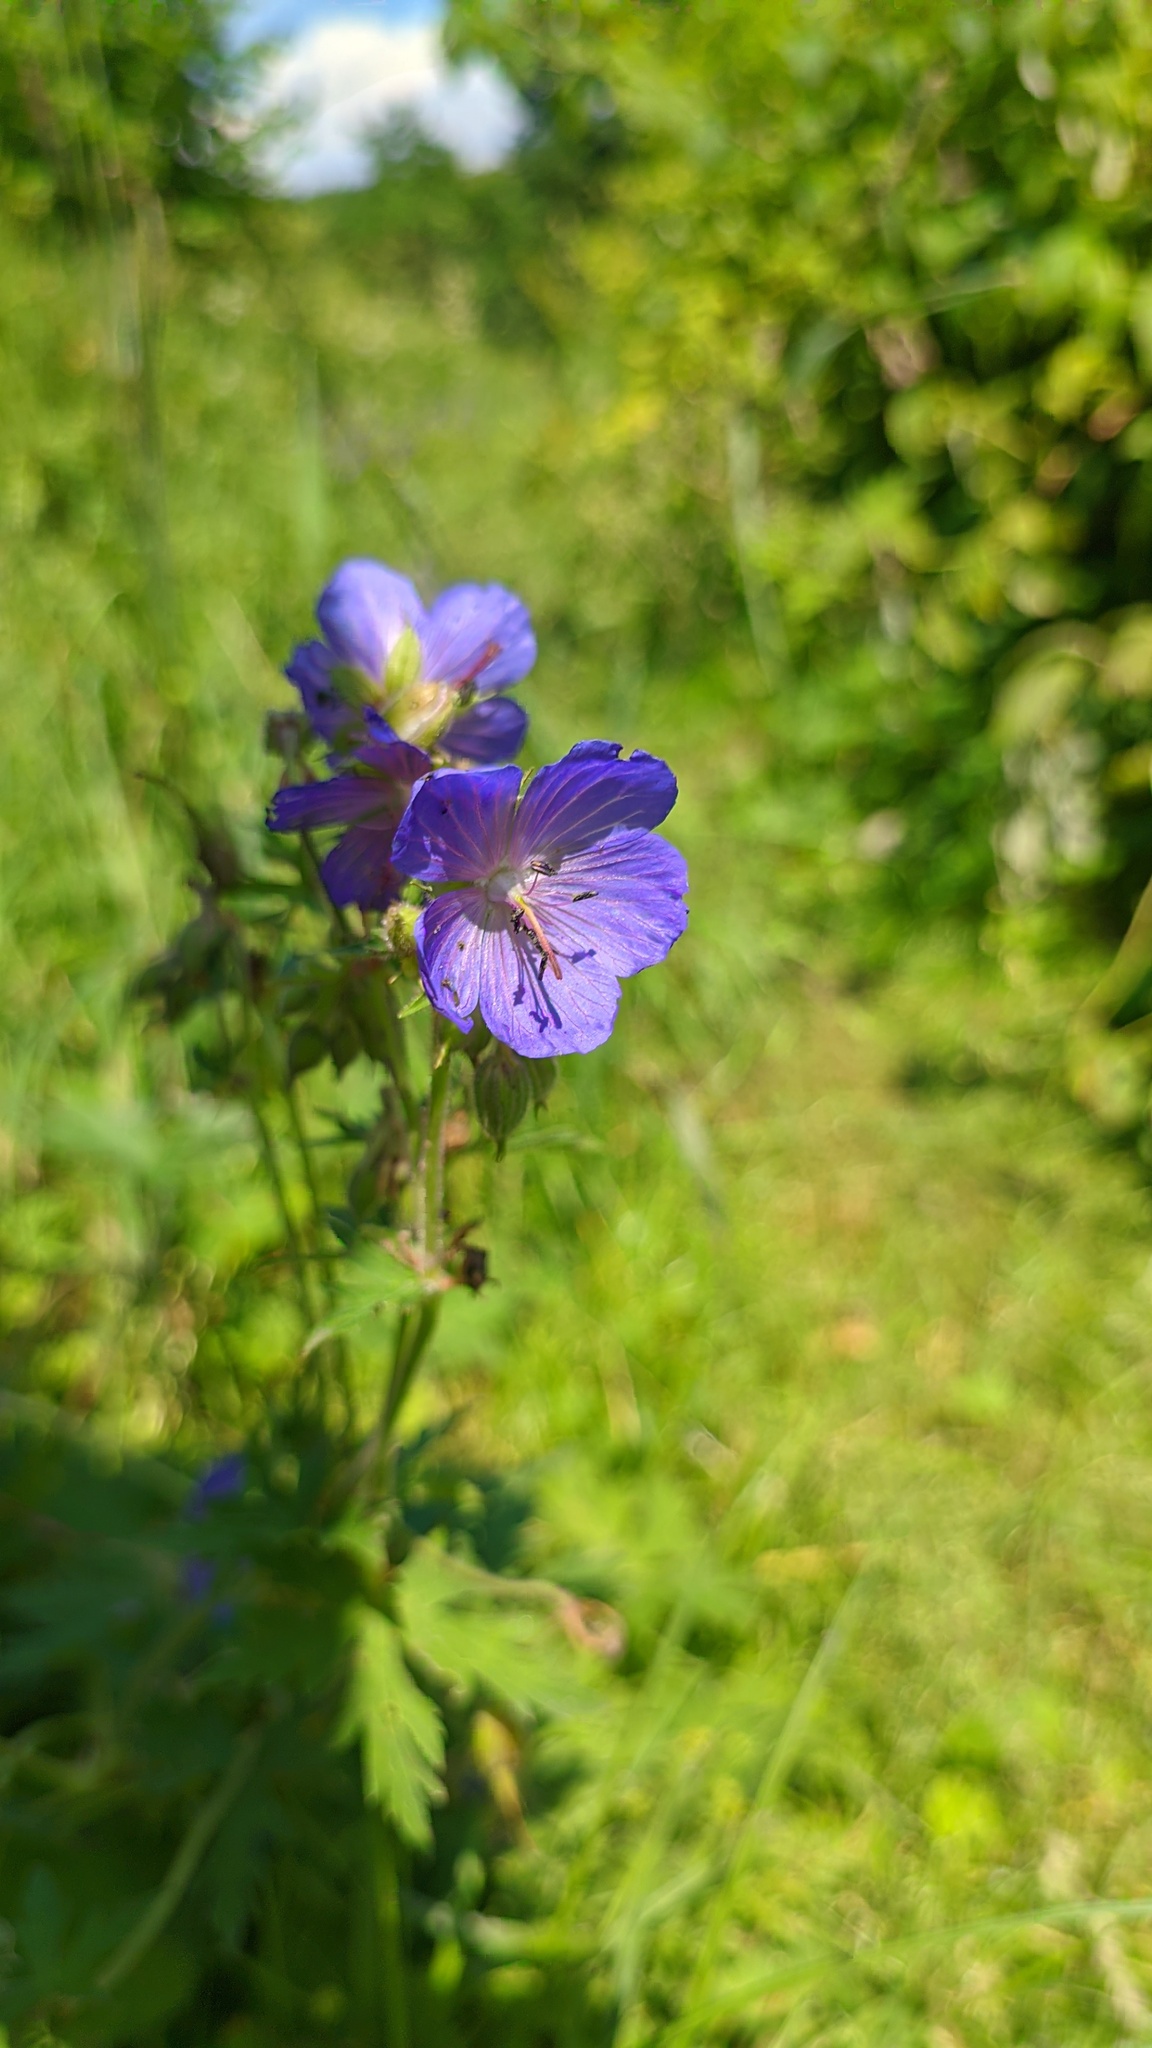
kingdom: Plantae
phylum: Tracheophyta
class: Magnoliopsida
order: Geraniales
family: Geraniaceae
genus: Geranium
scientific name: Geranium pratense
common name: Meadow crane's-bill
